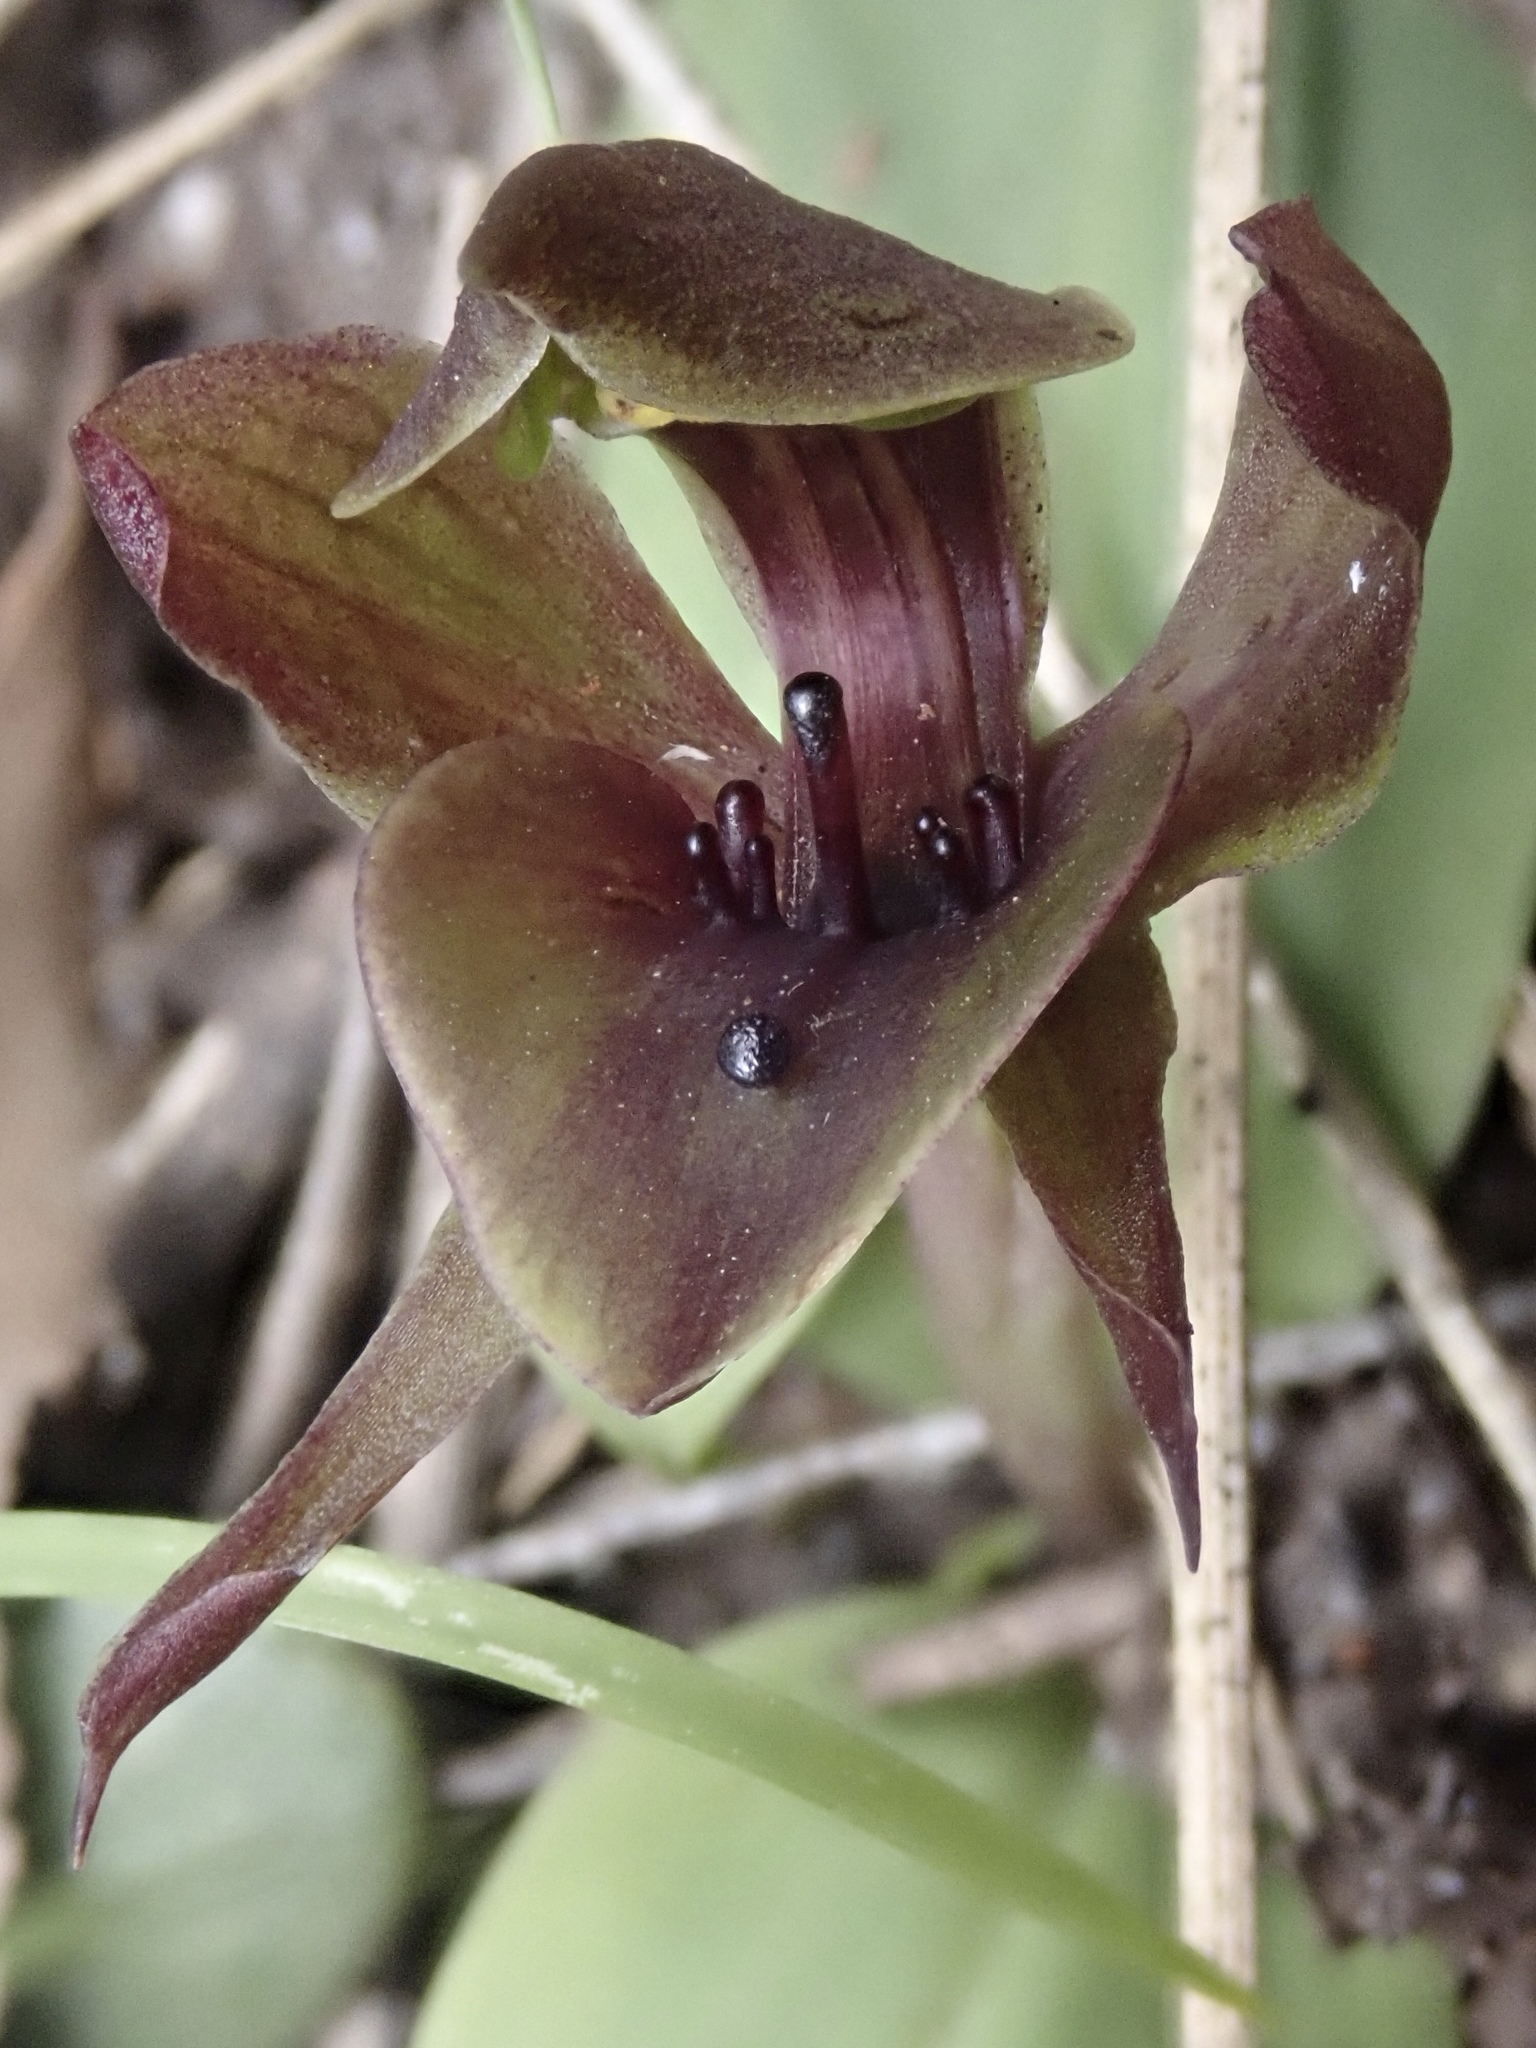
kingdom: Plantae
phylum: Tracheophyta
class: Liliopsida
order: Asparagales
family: Orchidaceae
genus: Chiloglottis
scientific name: Chiloglottis valida
